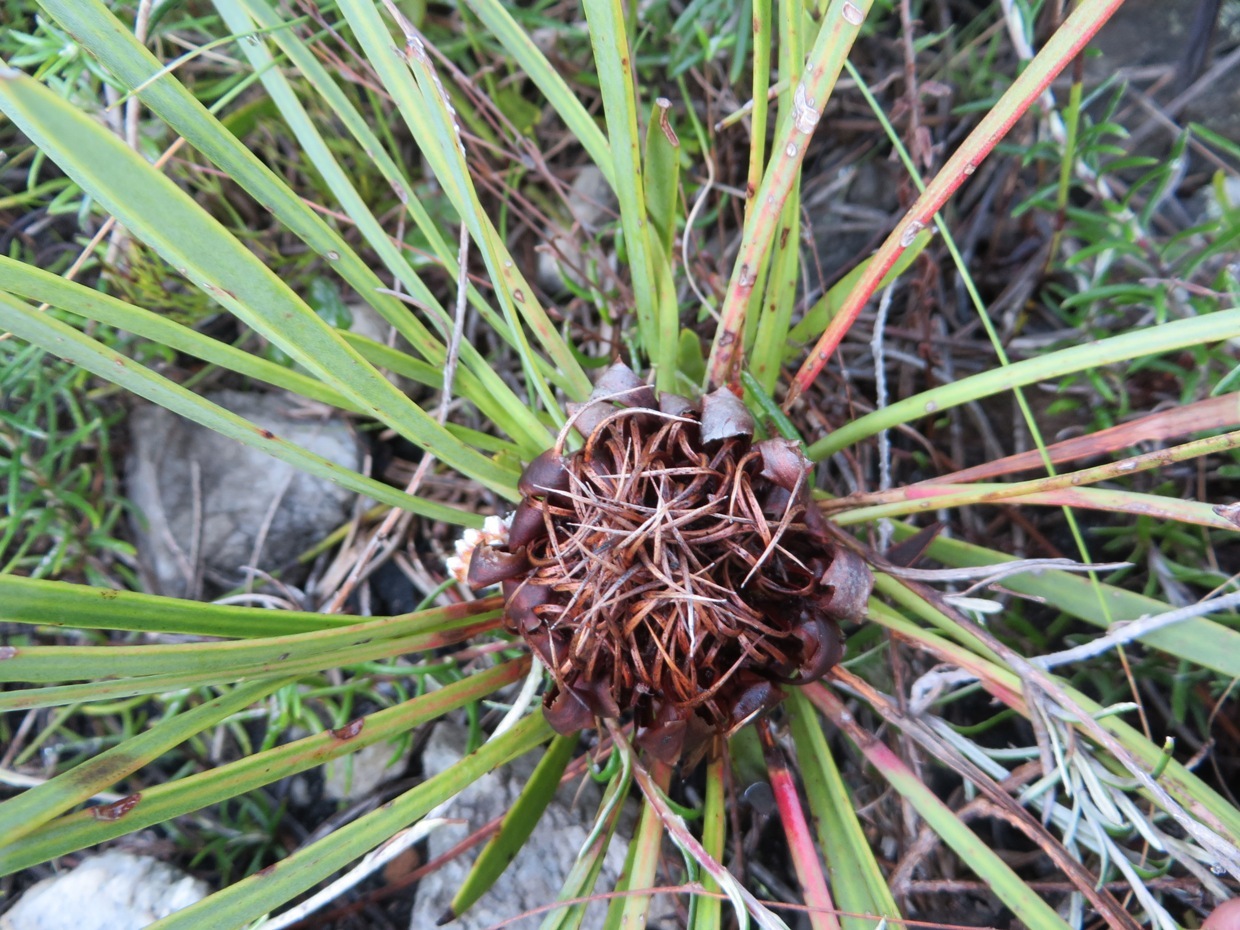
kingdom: Plantae
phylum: Tracheophyta
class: Magnoliopsida
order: Proteales
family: Proteaceae
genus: Protea
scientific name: Protea angustata
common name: Kleinmond sugarbush
